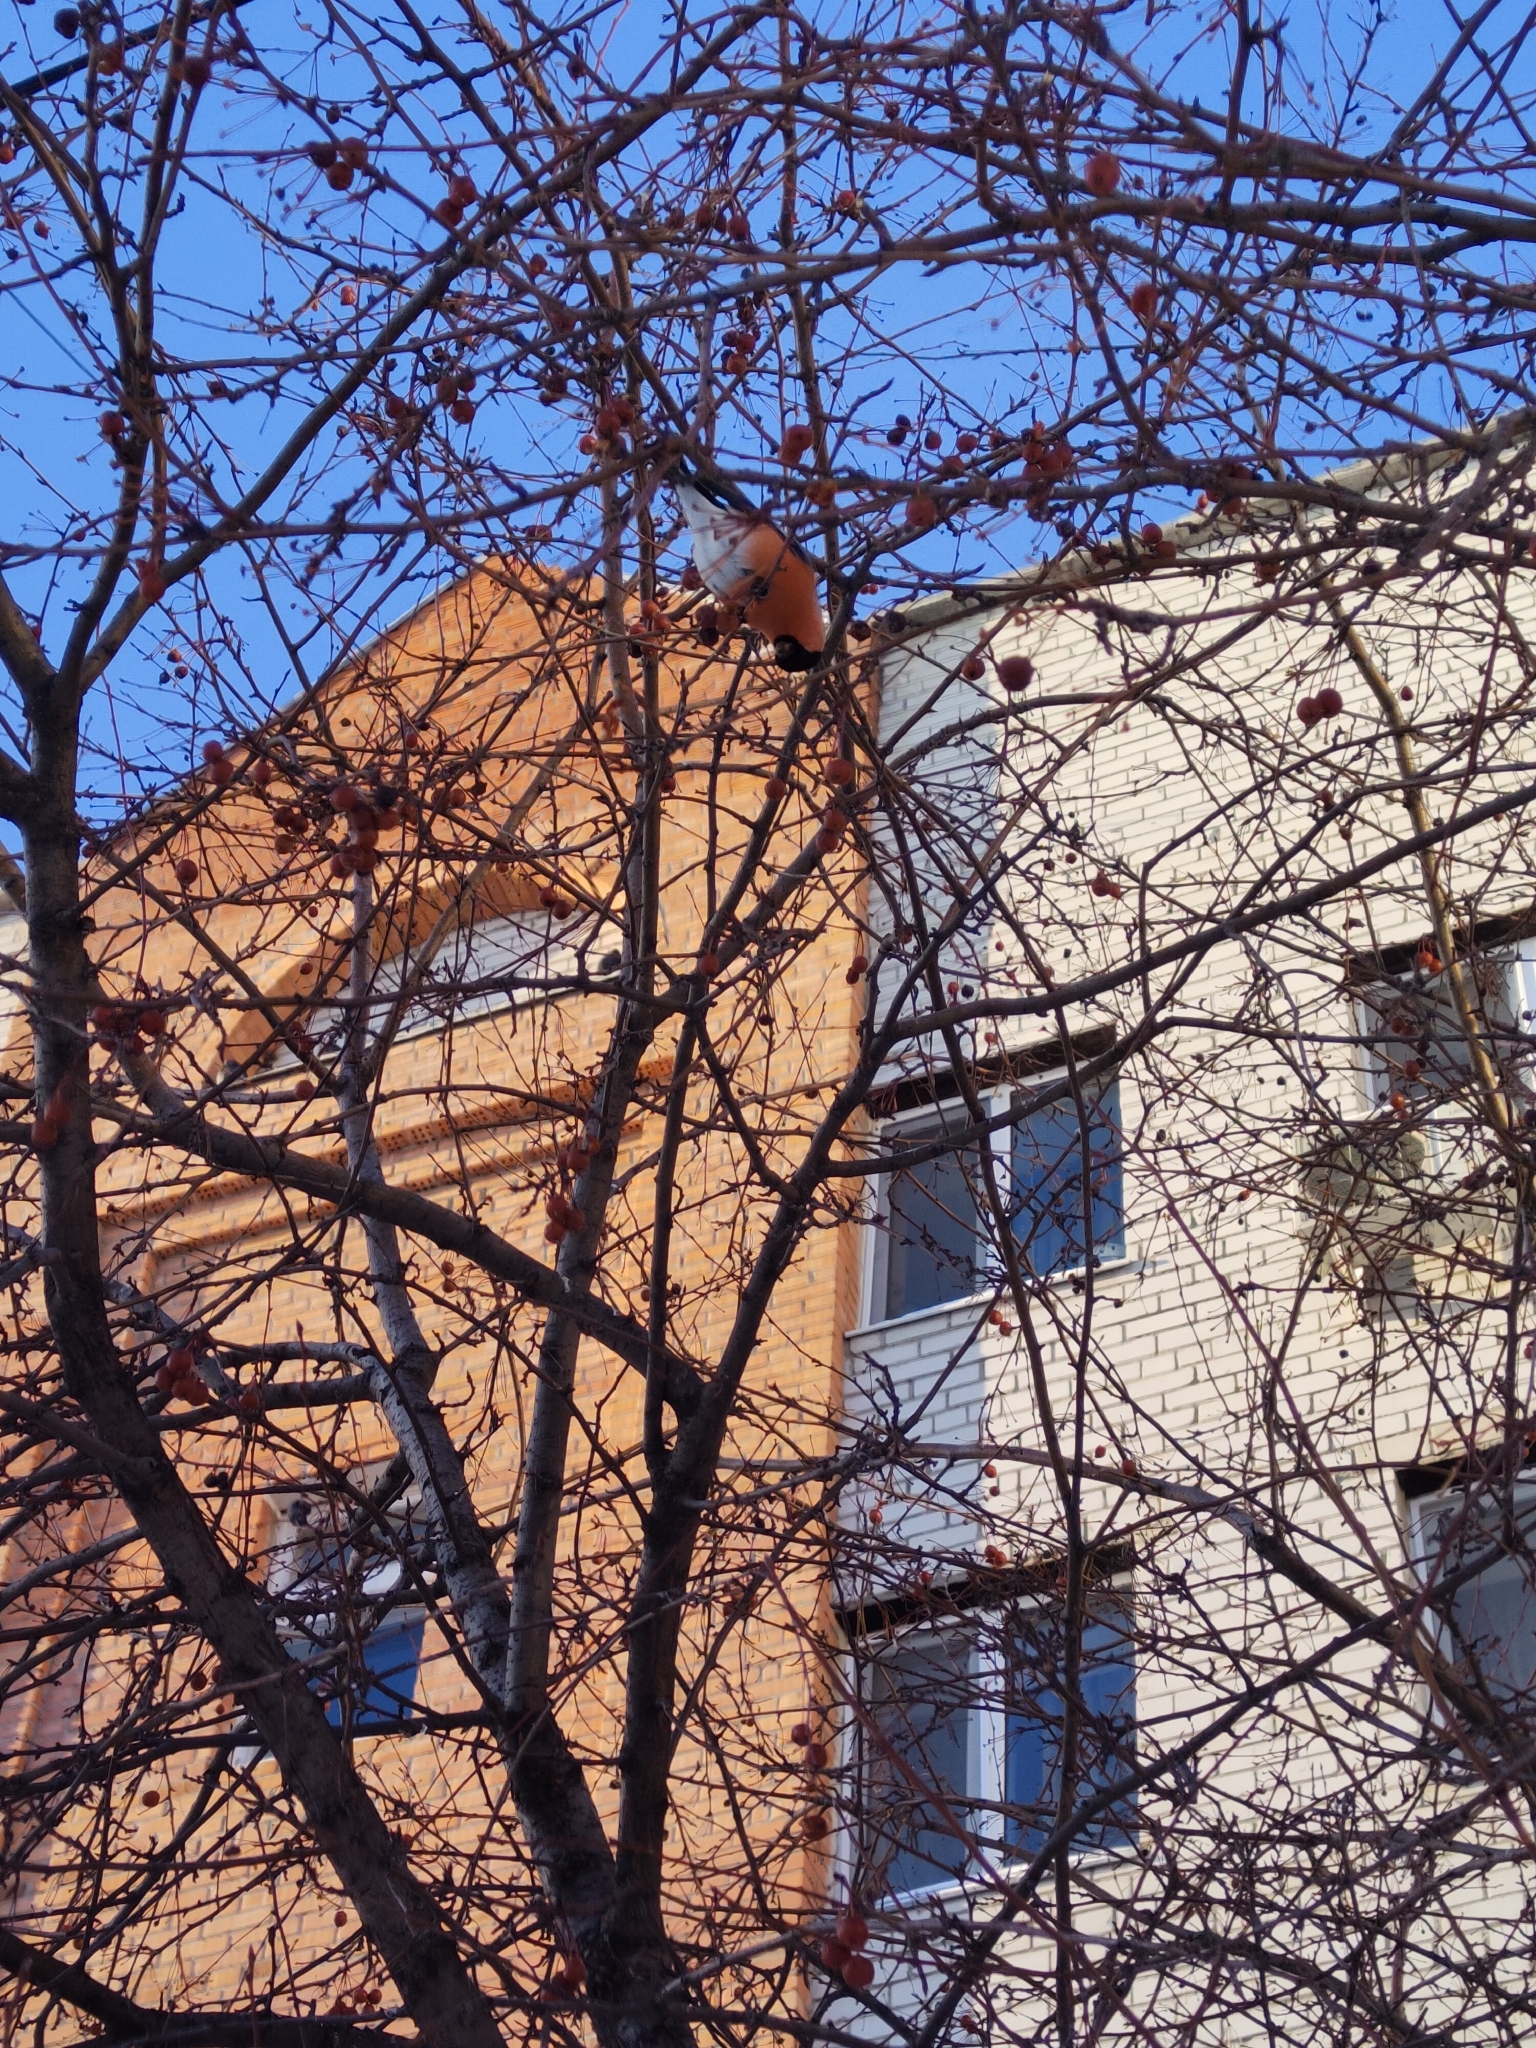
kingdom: Animalia
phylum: Chordata
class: Aves
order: Passeriformes
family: Fringillidae
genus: Pyrrhula
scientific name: Pyrrhula pyrrhula
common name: Eurasian bullfinch
